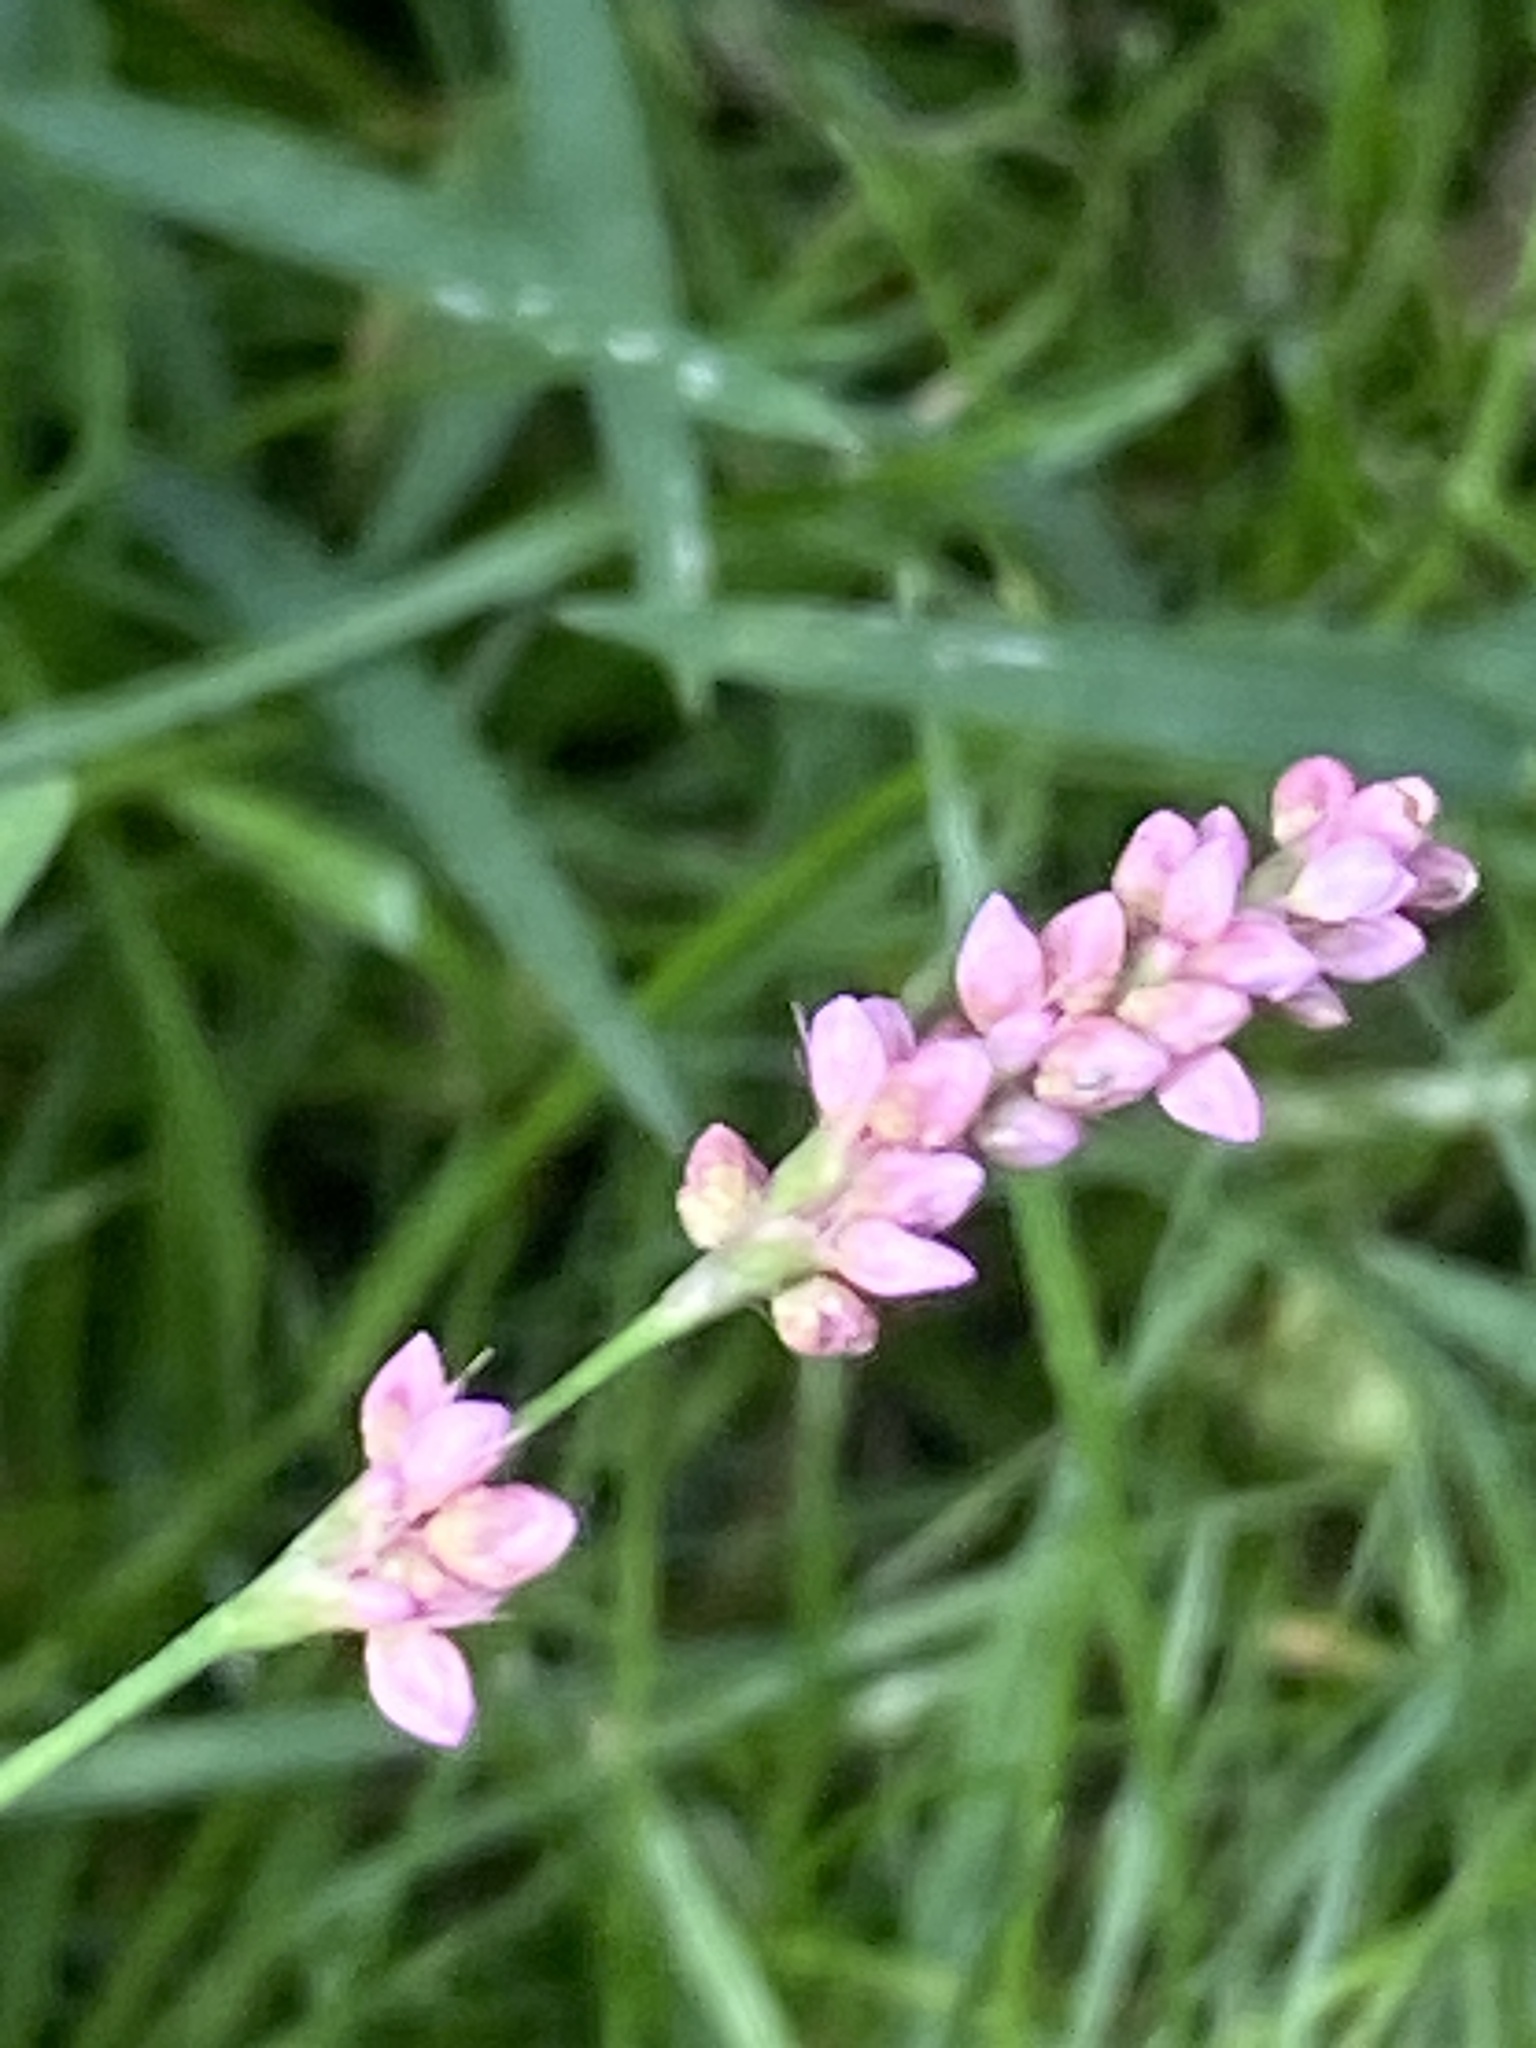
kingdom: Plantae
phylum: Tracheophyta
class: Magnoliopsida
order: Caryophyllales
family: Polygonaceae
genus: Persicaria
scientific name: Persicaria longiseta
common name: Bristly lady's-thumb
